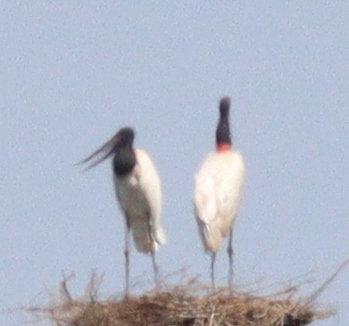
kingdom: Animalia
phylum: Chordata
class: Aves
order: Ciconiiformes
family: Ciconiidae
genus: Jabiru
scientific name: Jabiru mycteria
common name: Jabiru
